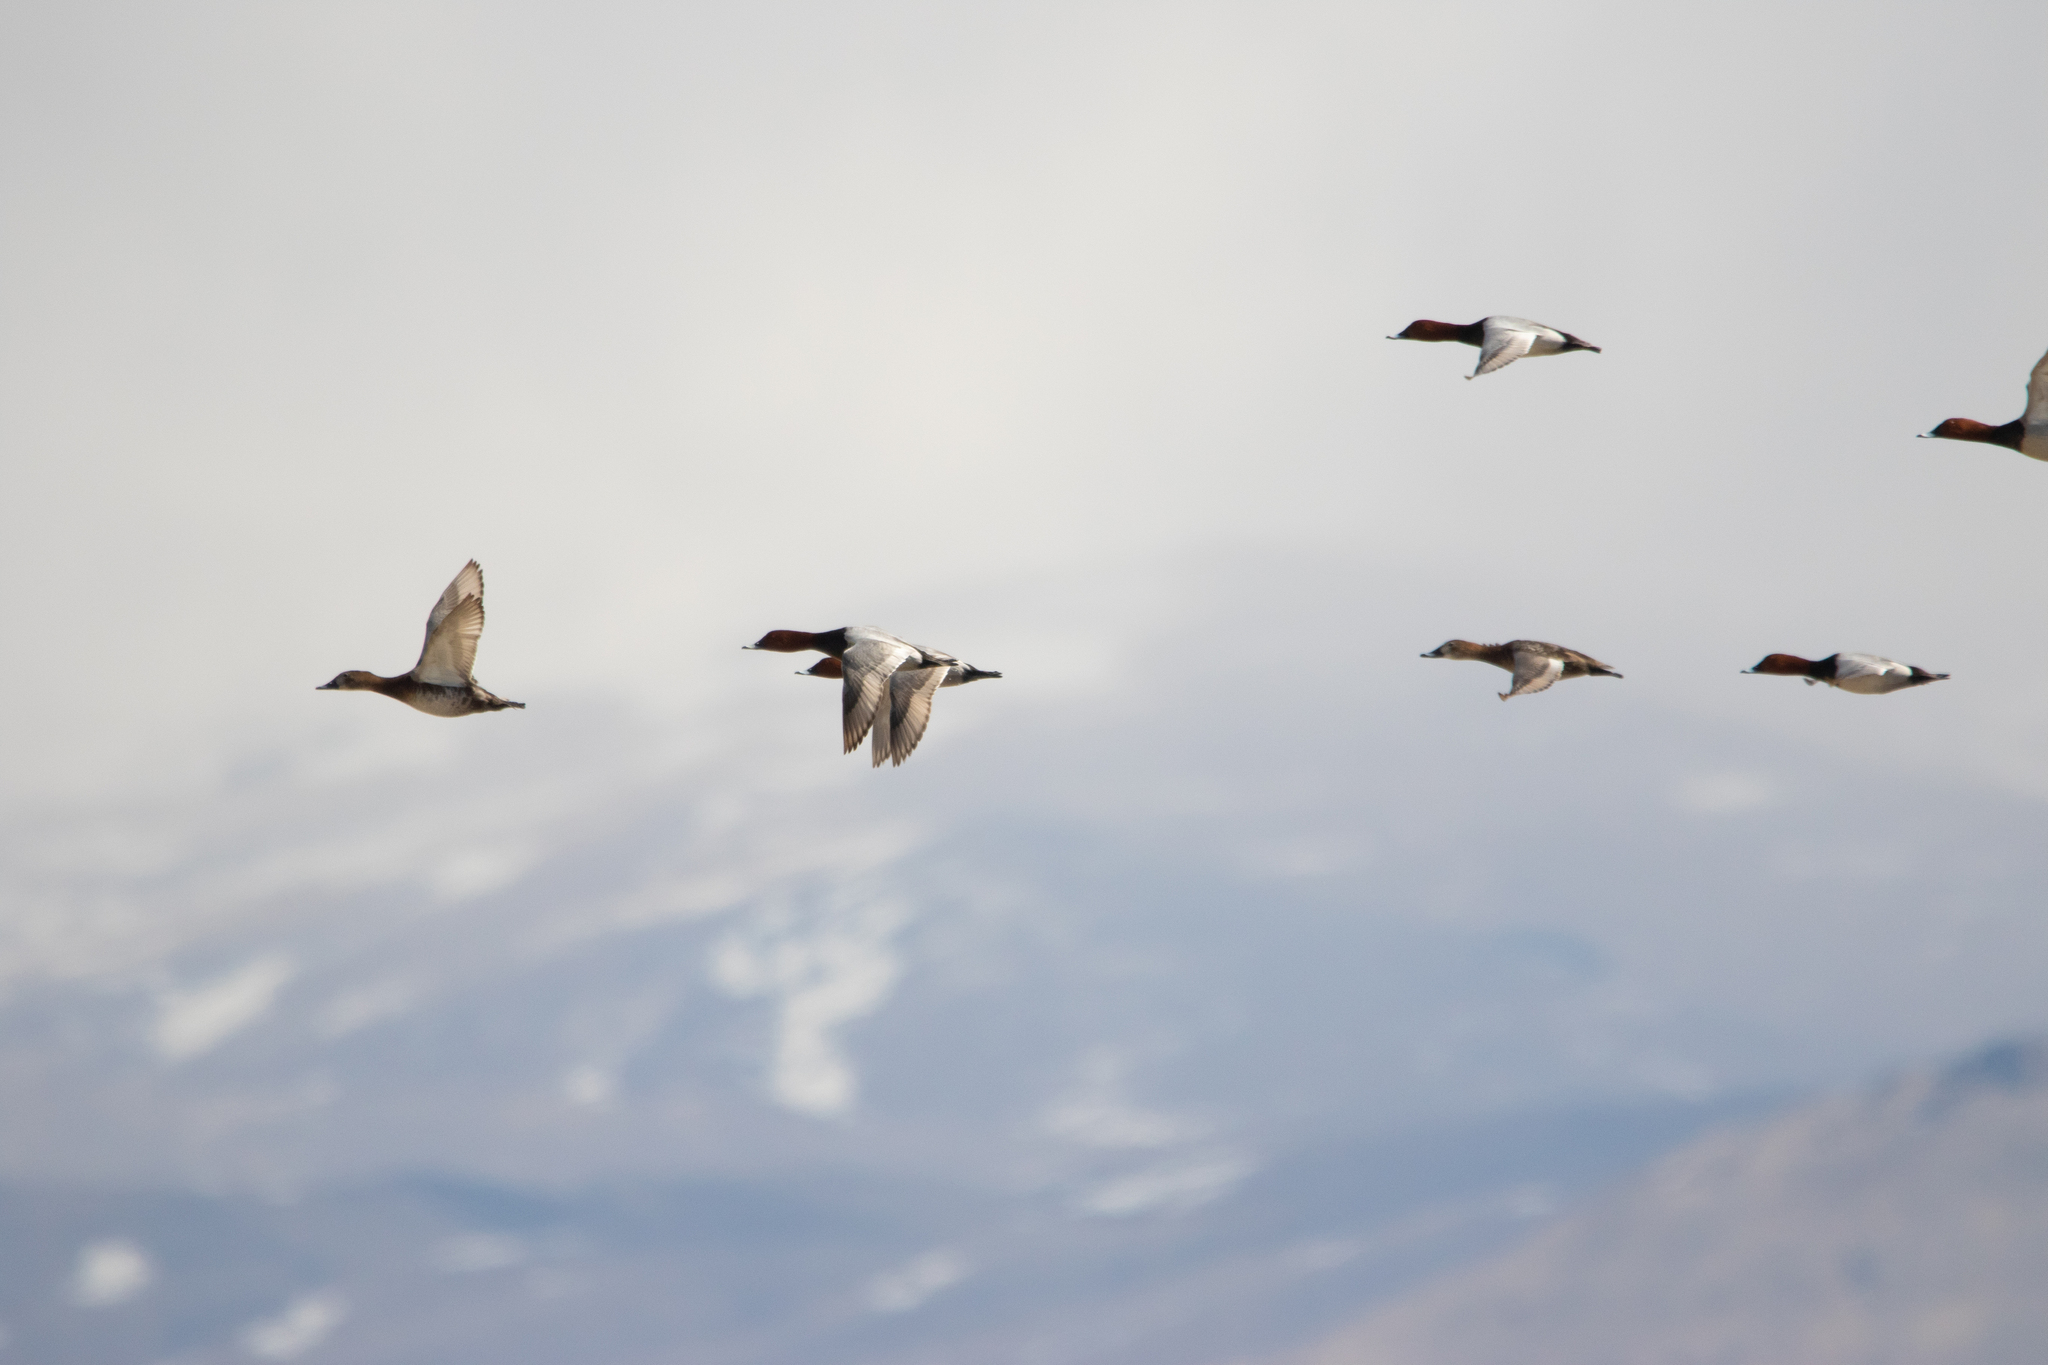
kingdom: Animalia
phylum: Chordata
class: Aves
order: Anseriformes
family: Anatidae
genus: Aythya
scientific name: Aythya ferina
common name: Common pochard
